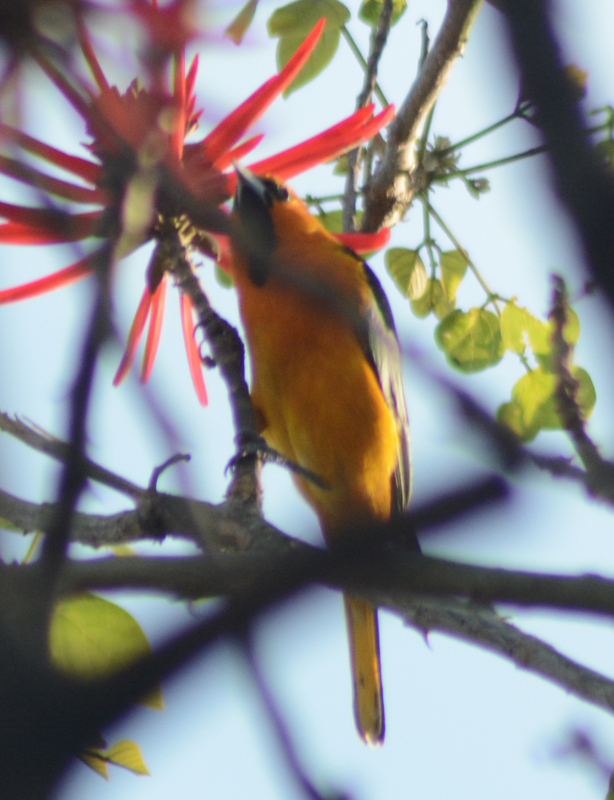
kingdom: Animalia
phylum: Chordata
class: Aves
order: Passeriformes
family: Icteridae
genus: Icterus
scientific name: Icterus bullockii
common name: Bullock's oriole
